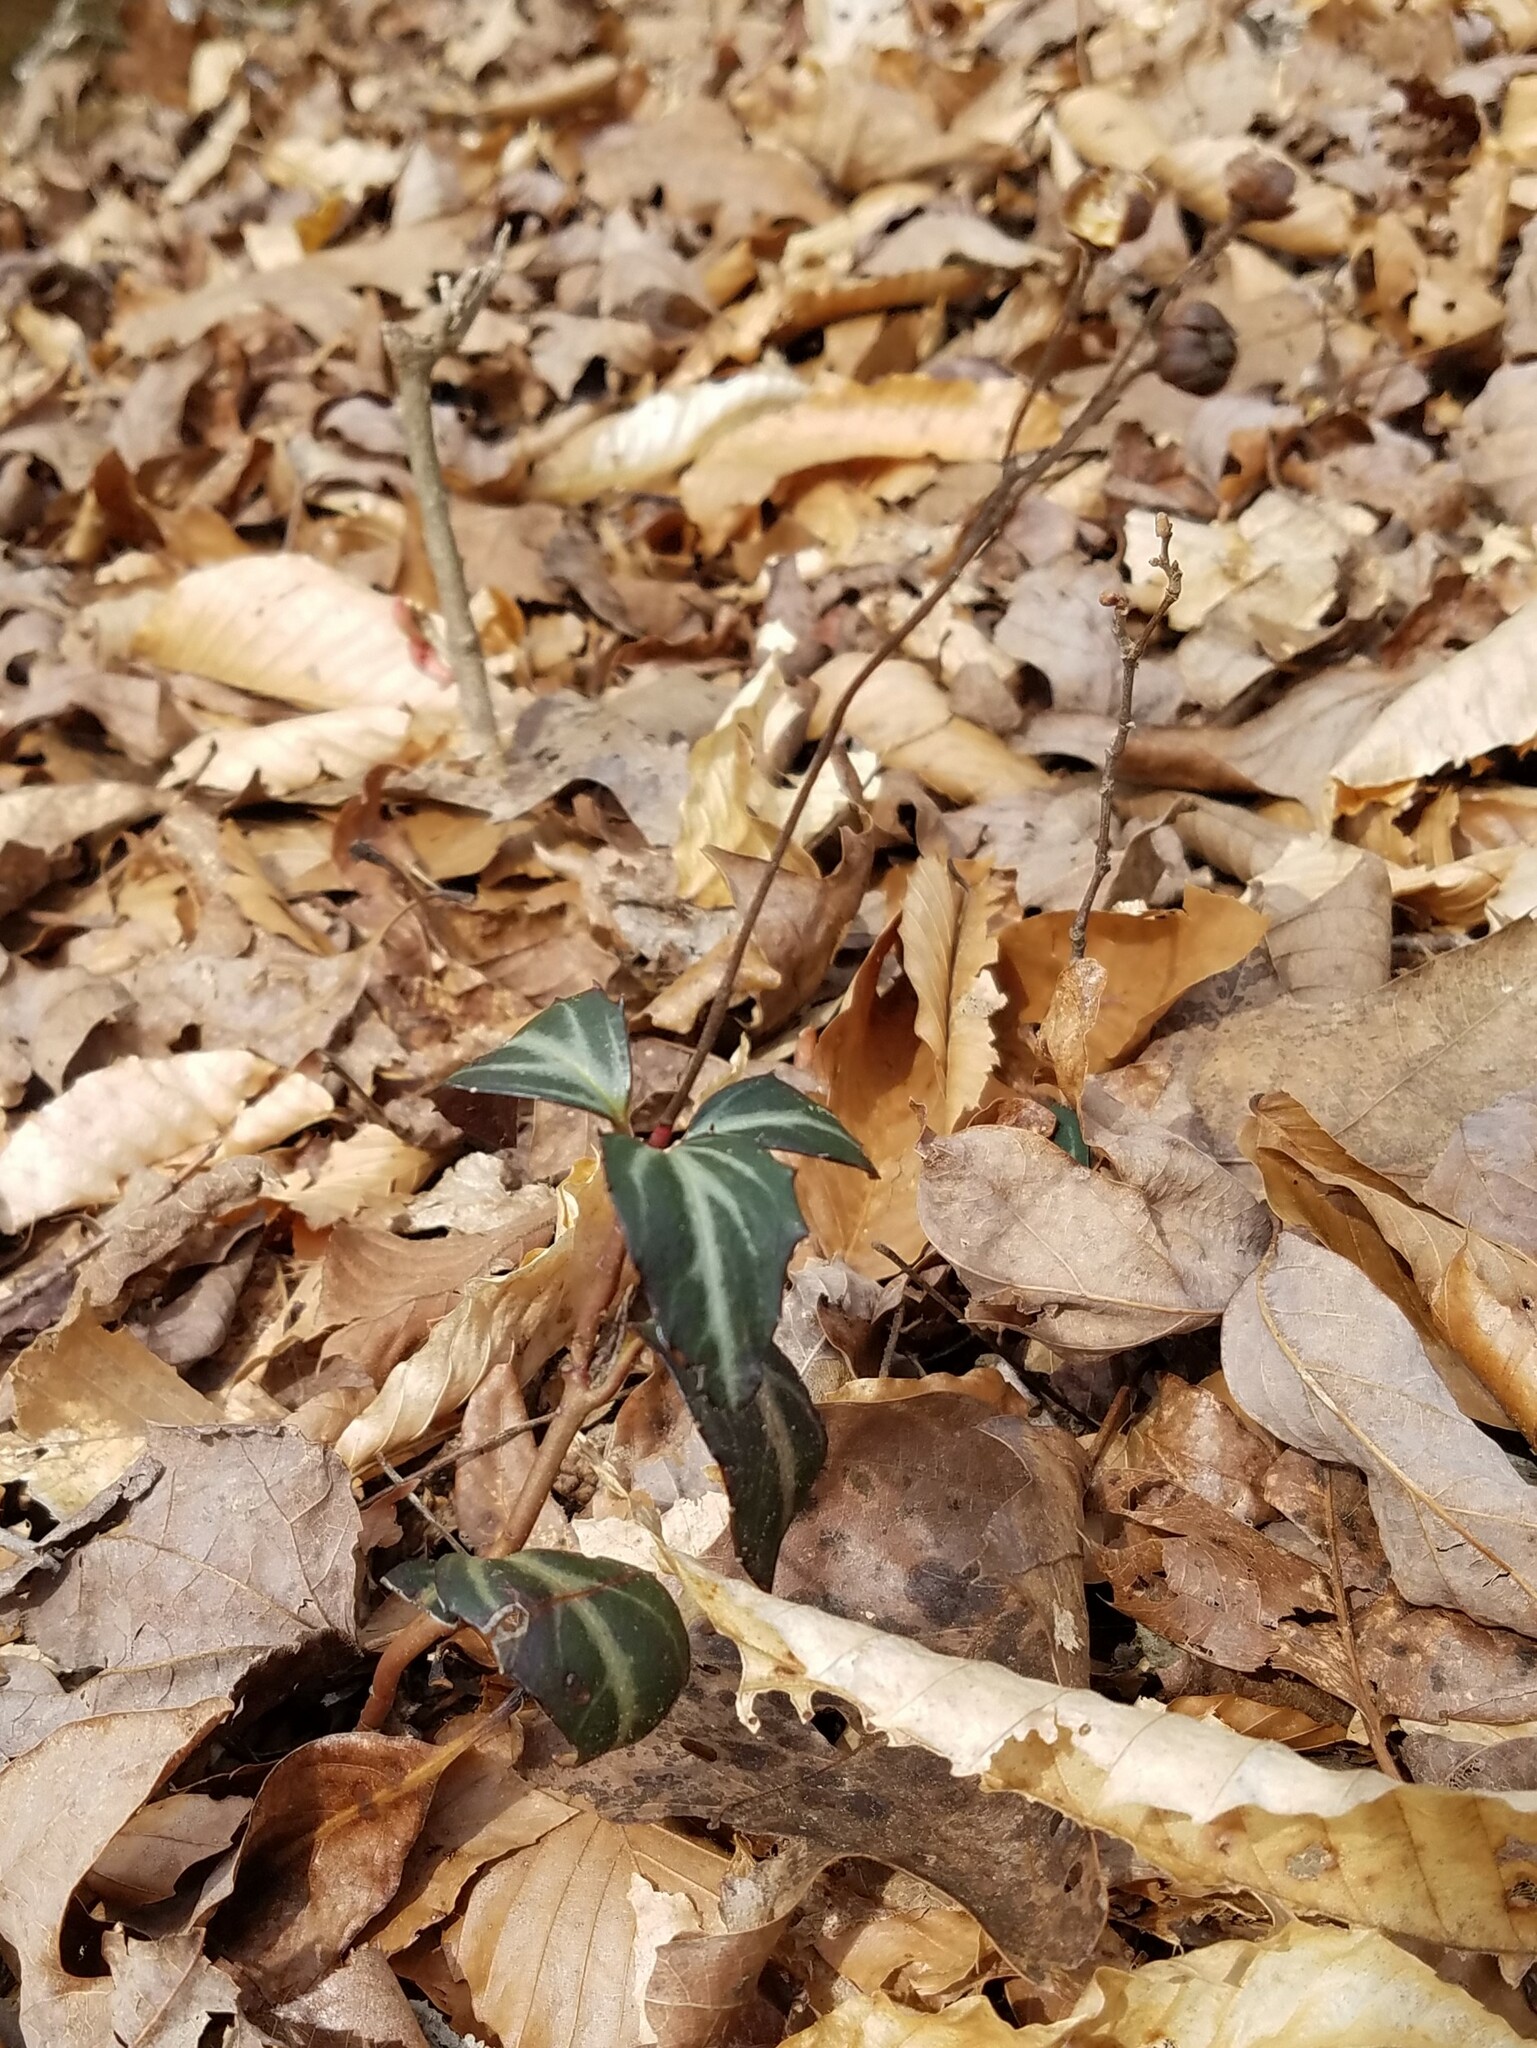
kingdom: Plantae
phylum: Tracheophyta
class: Magnoliopsida
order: Ericales
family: Ericaceae
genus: Chimaphila
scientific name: Chimaphila maculata
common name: Spotted pipsissewa
